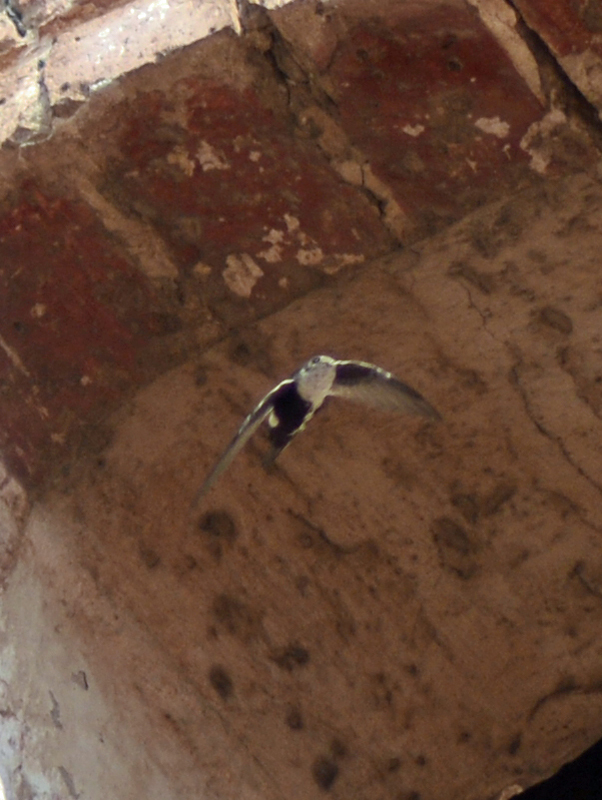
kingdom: Animalia
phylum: Chordata
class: Aves
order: Apodiformes
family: Apodidae
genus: Aeronautes
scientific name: Aeronautes saxatalis
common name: White-throated swift
